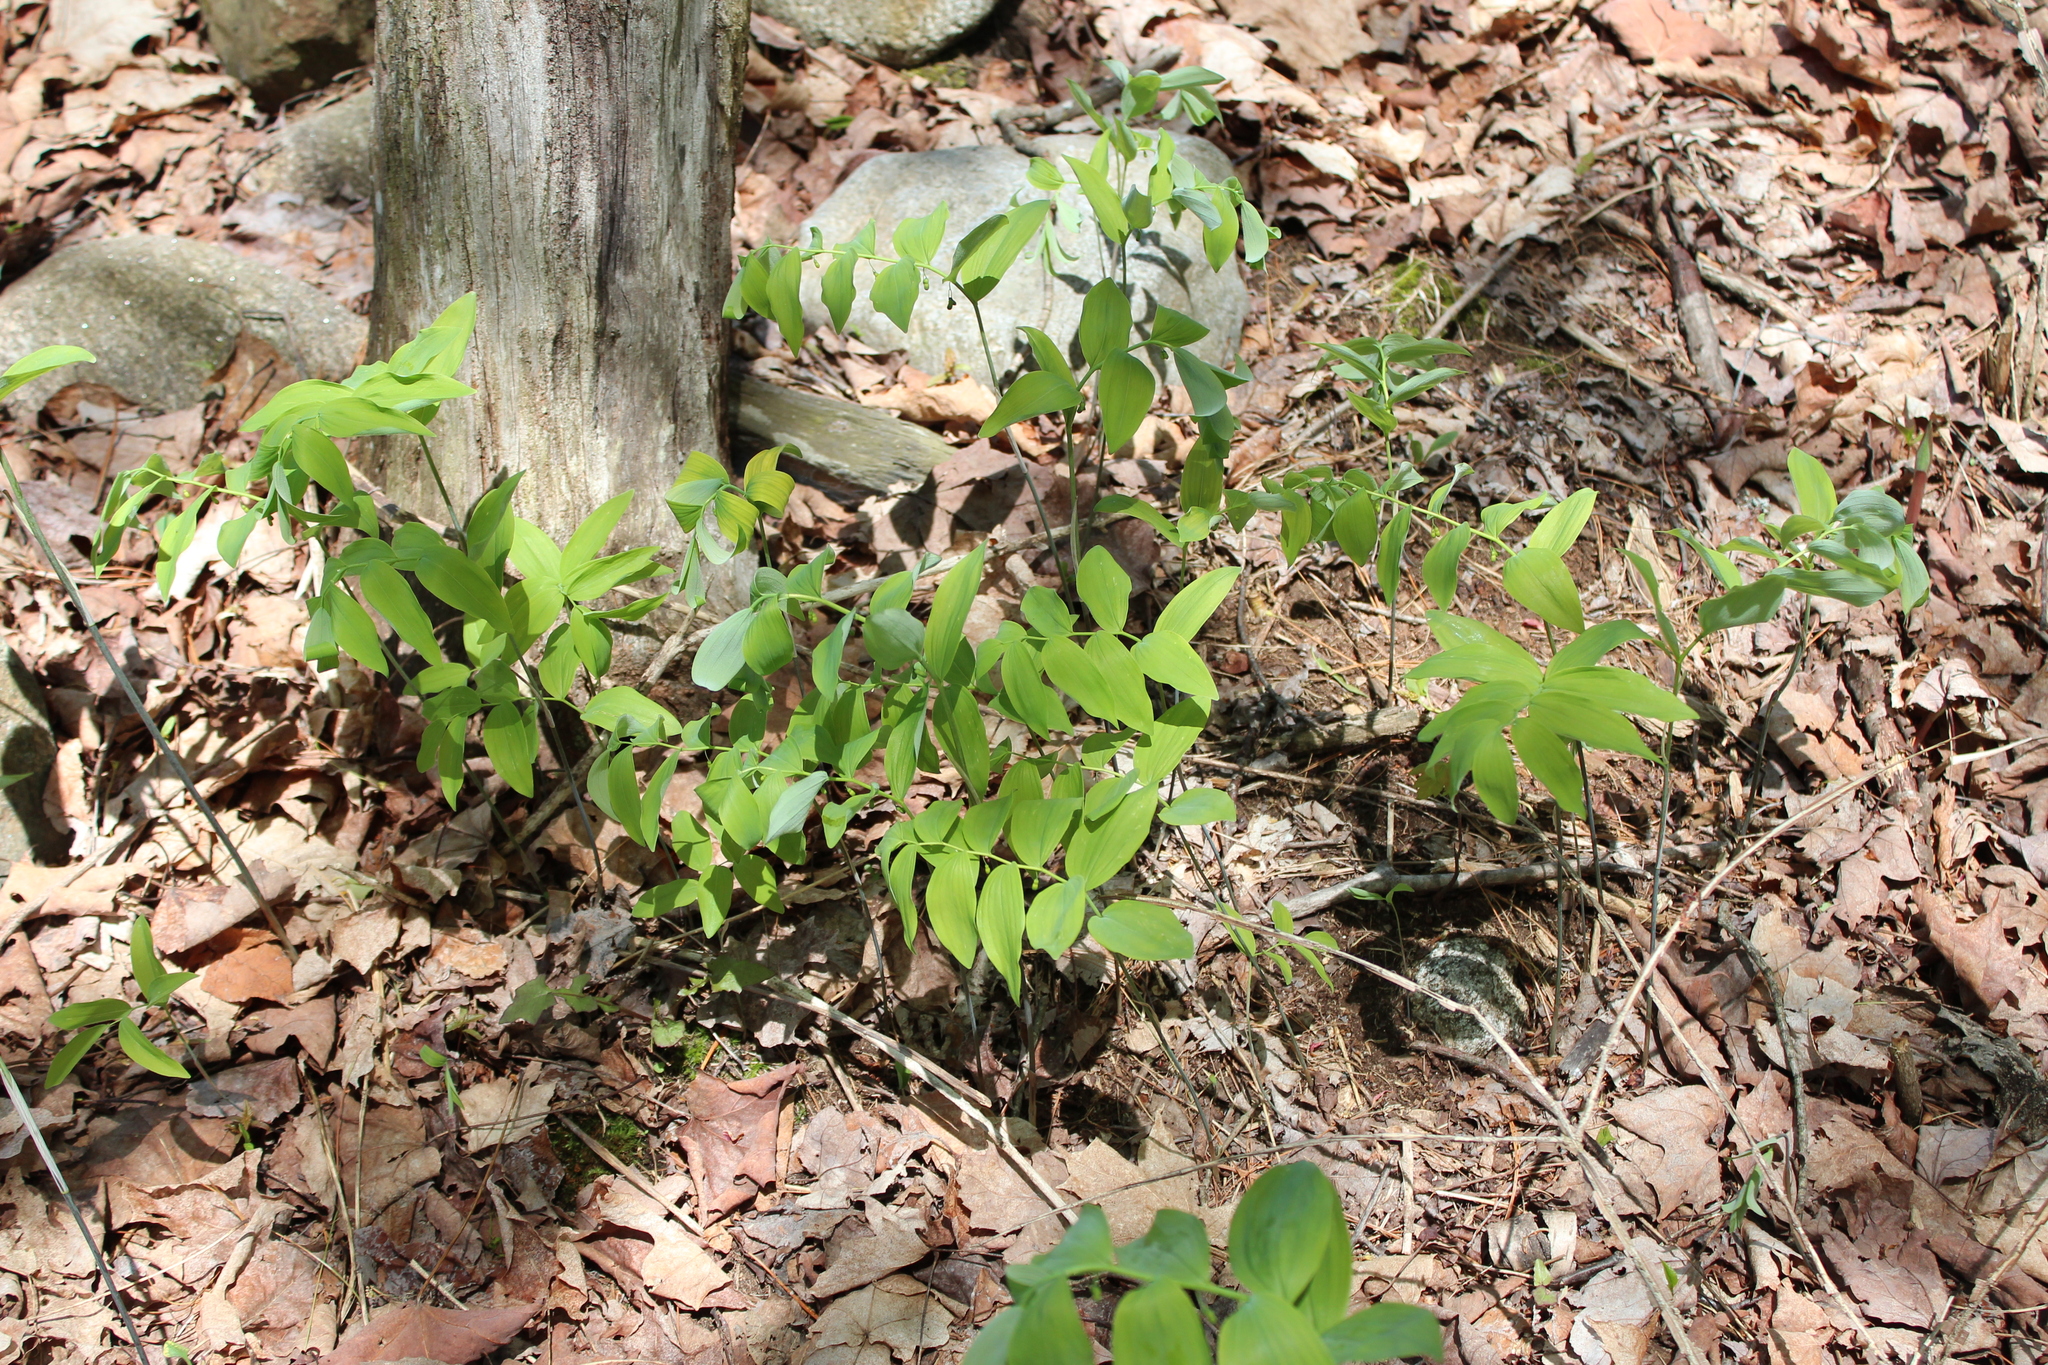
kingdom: Plantae
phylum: Tracheophyta
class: Liliopsida
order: Asparagales
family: Asparagaceae
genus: Polygonatum
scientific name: Polygonatum pubescens
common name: Downy solomon's seal
